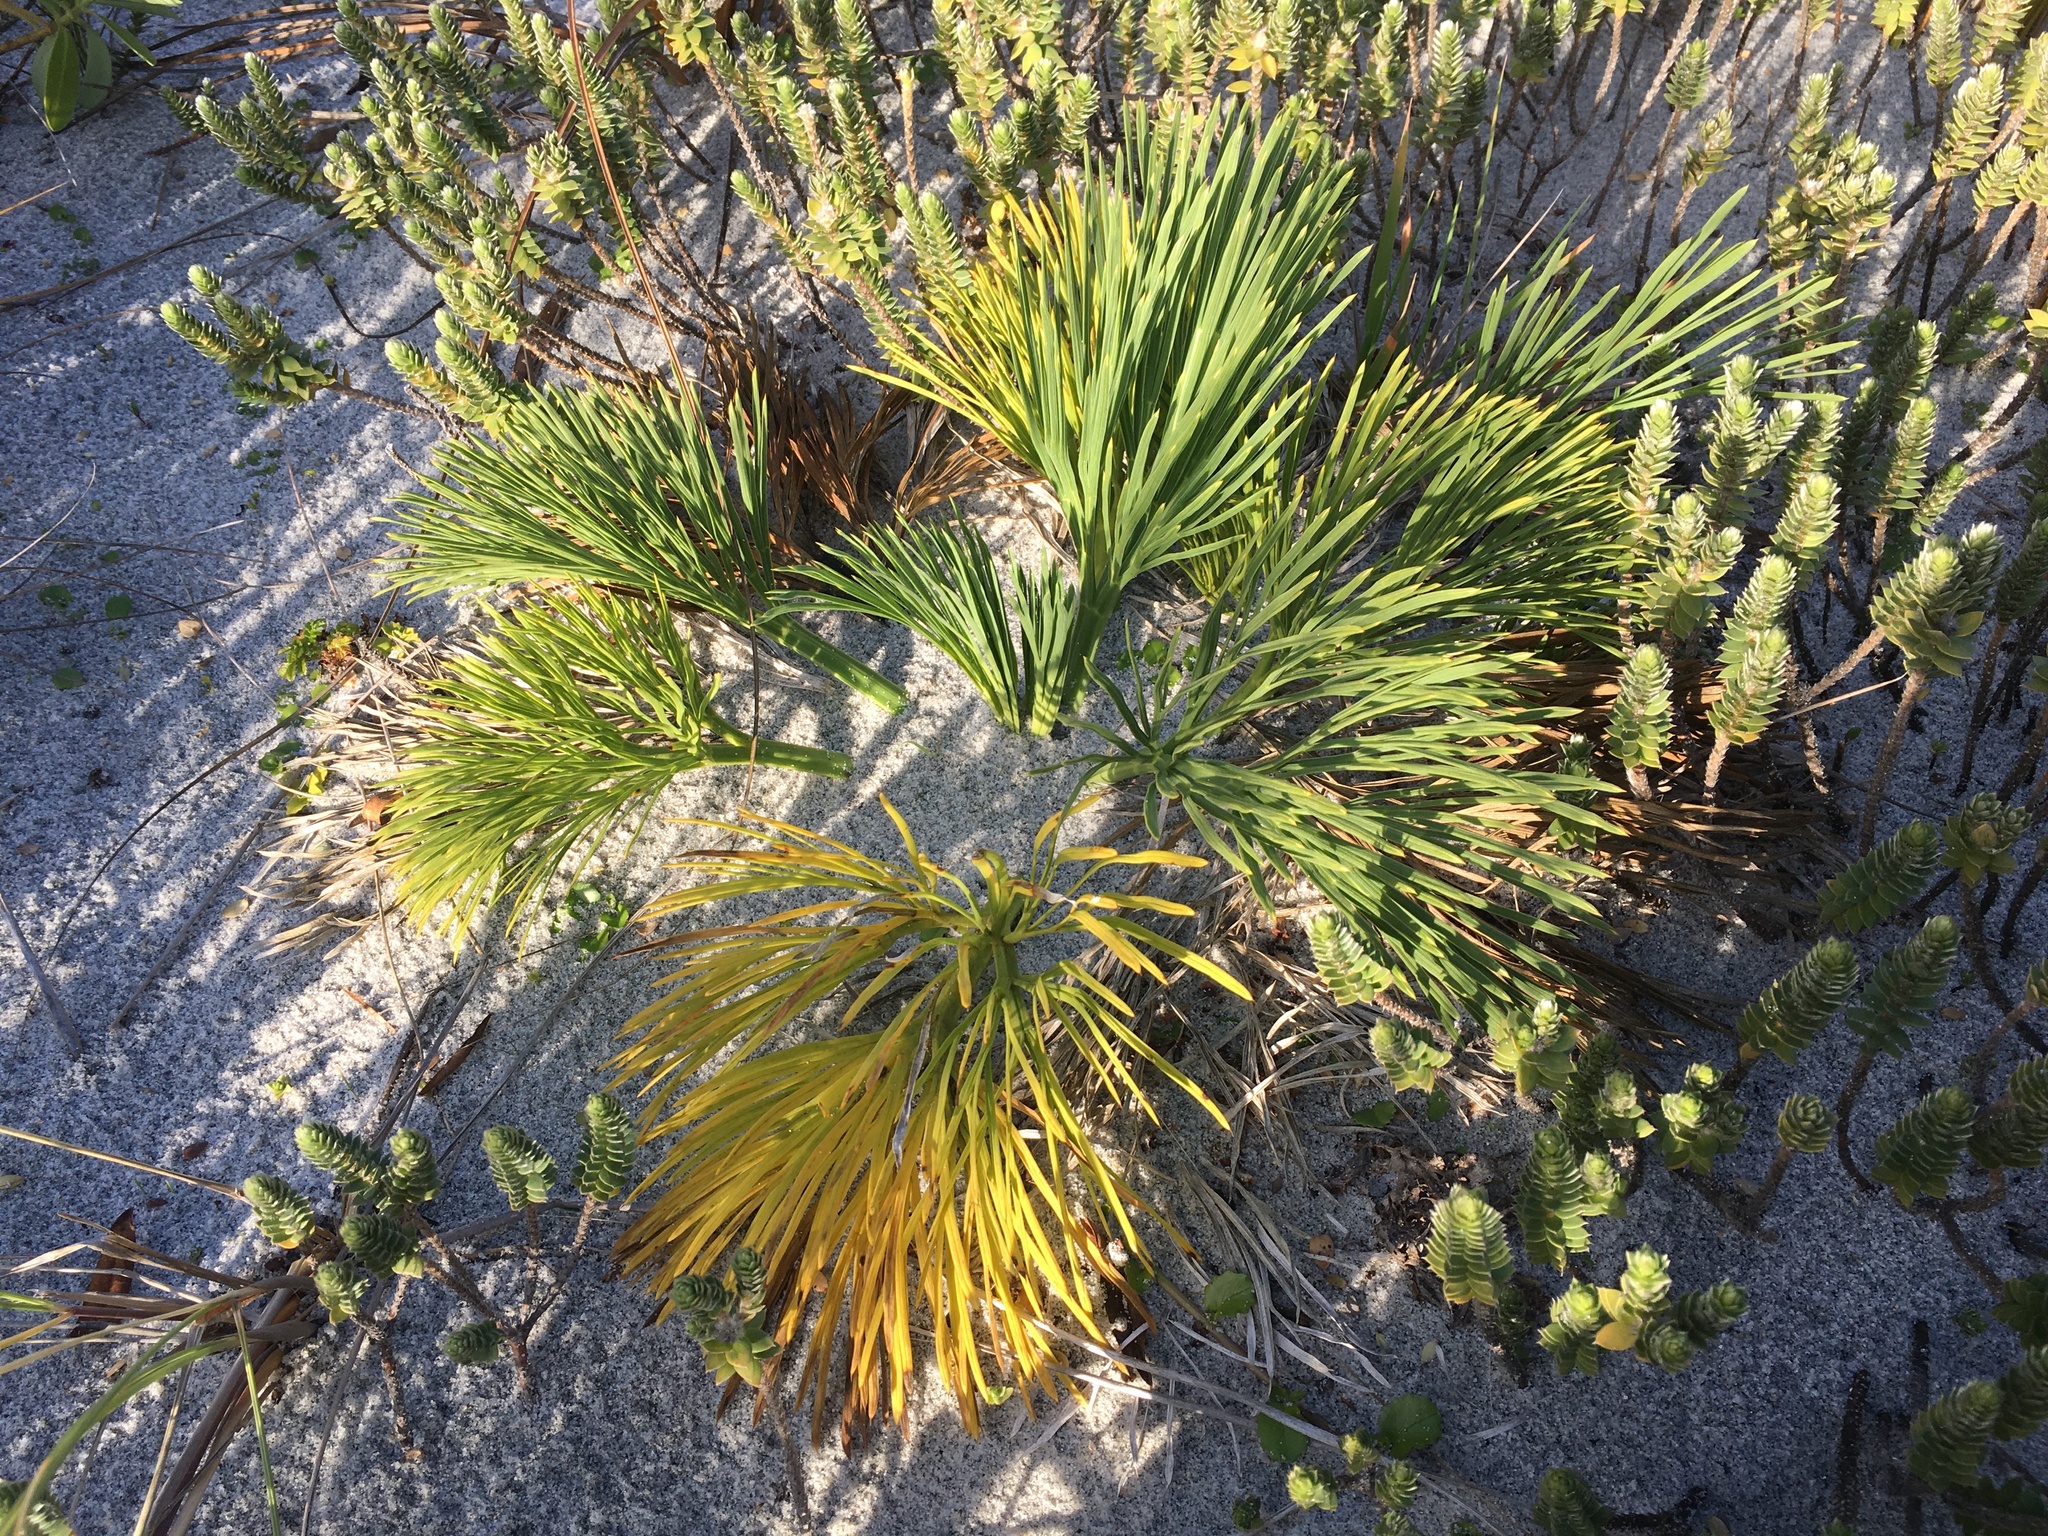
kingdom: Plantae
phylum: Tracheophyta
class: Magnoliopsida
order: Apiales
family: Apiaceae
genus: Aciphylla
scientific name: Aciphylla dieffenbachii
